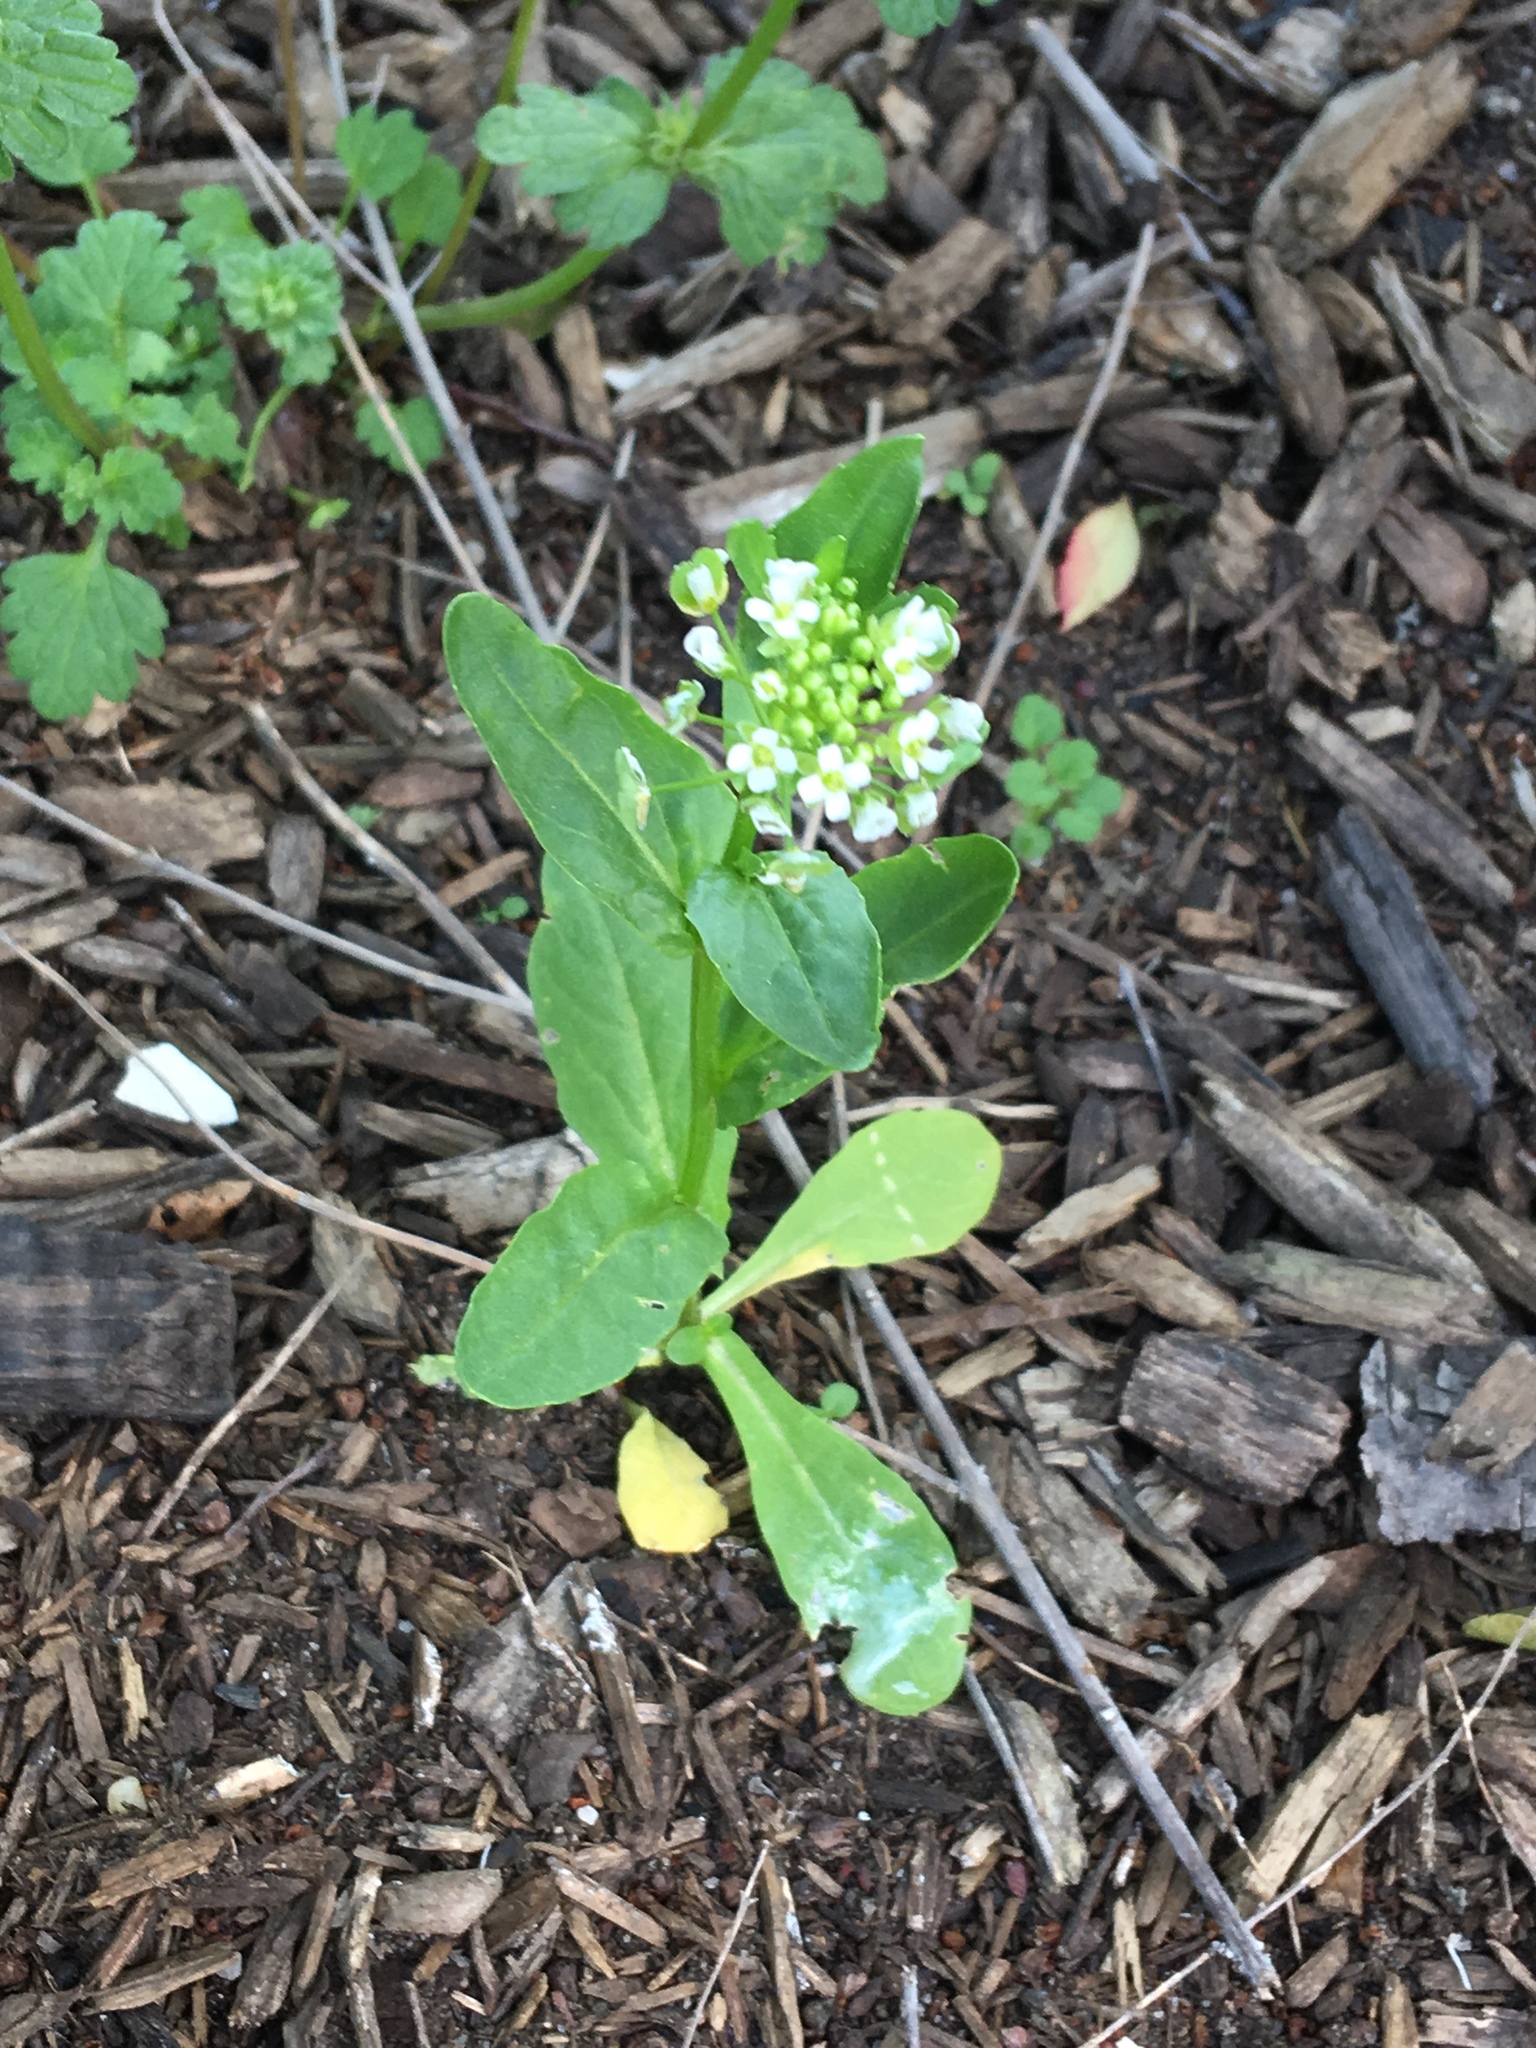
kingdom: Plantae
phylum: Tracheophyta
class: Magnoliopsida
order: Brassicales
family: Brassicaceae
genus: Thlaspi
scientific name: Thlaspi arvense
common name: Field pennycress
